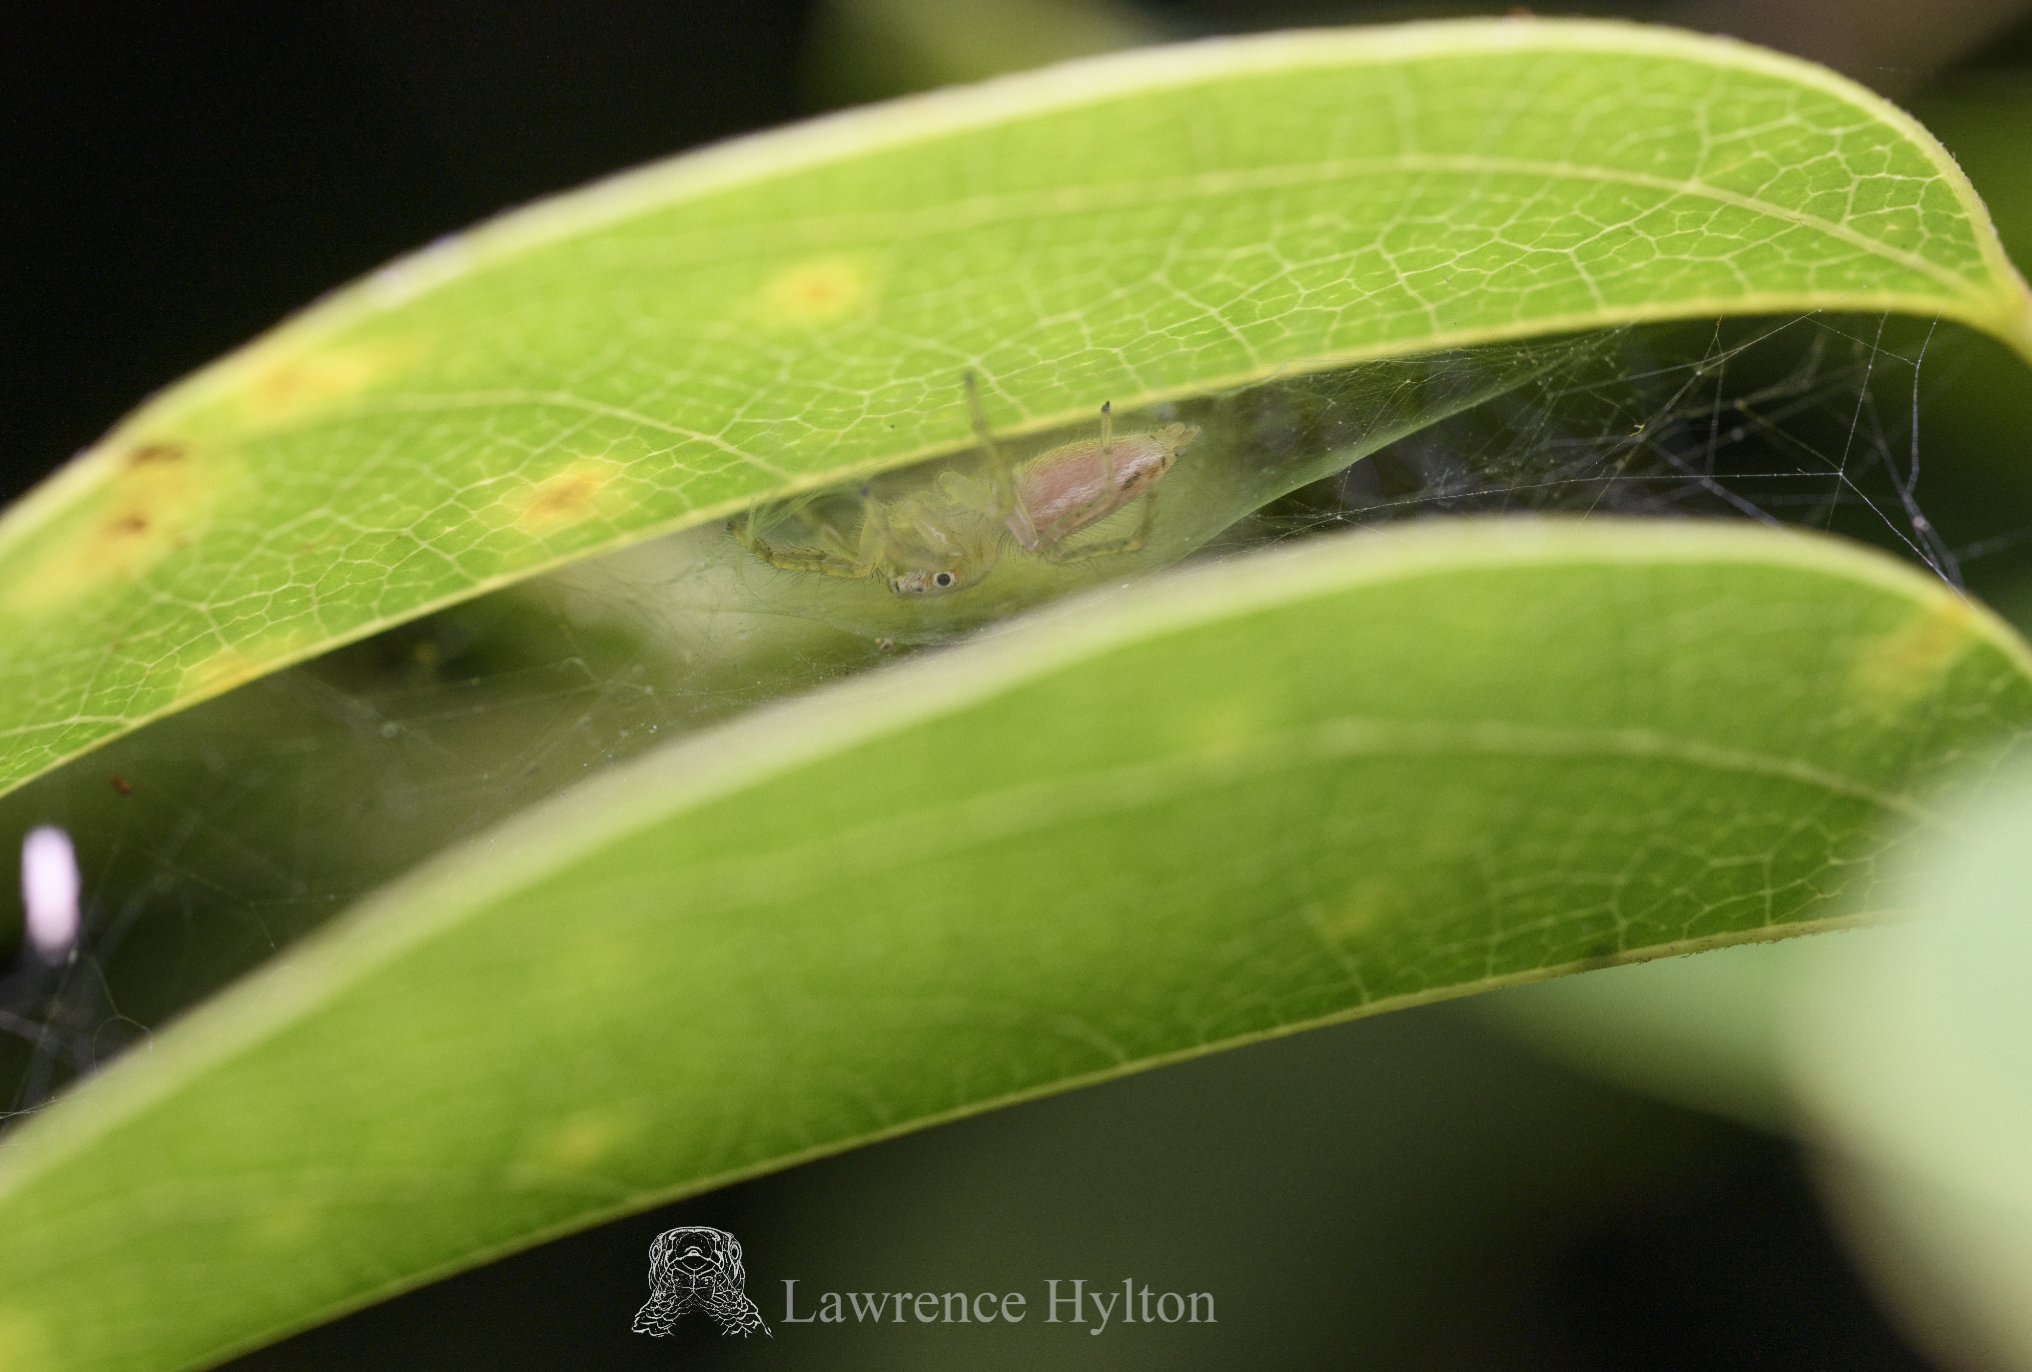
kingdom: Animalia
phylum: Arthropoda
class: Arachnida
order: Araneae
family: Salticidae
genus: Telamonia
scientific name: Telamonia caprina
